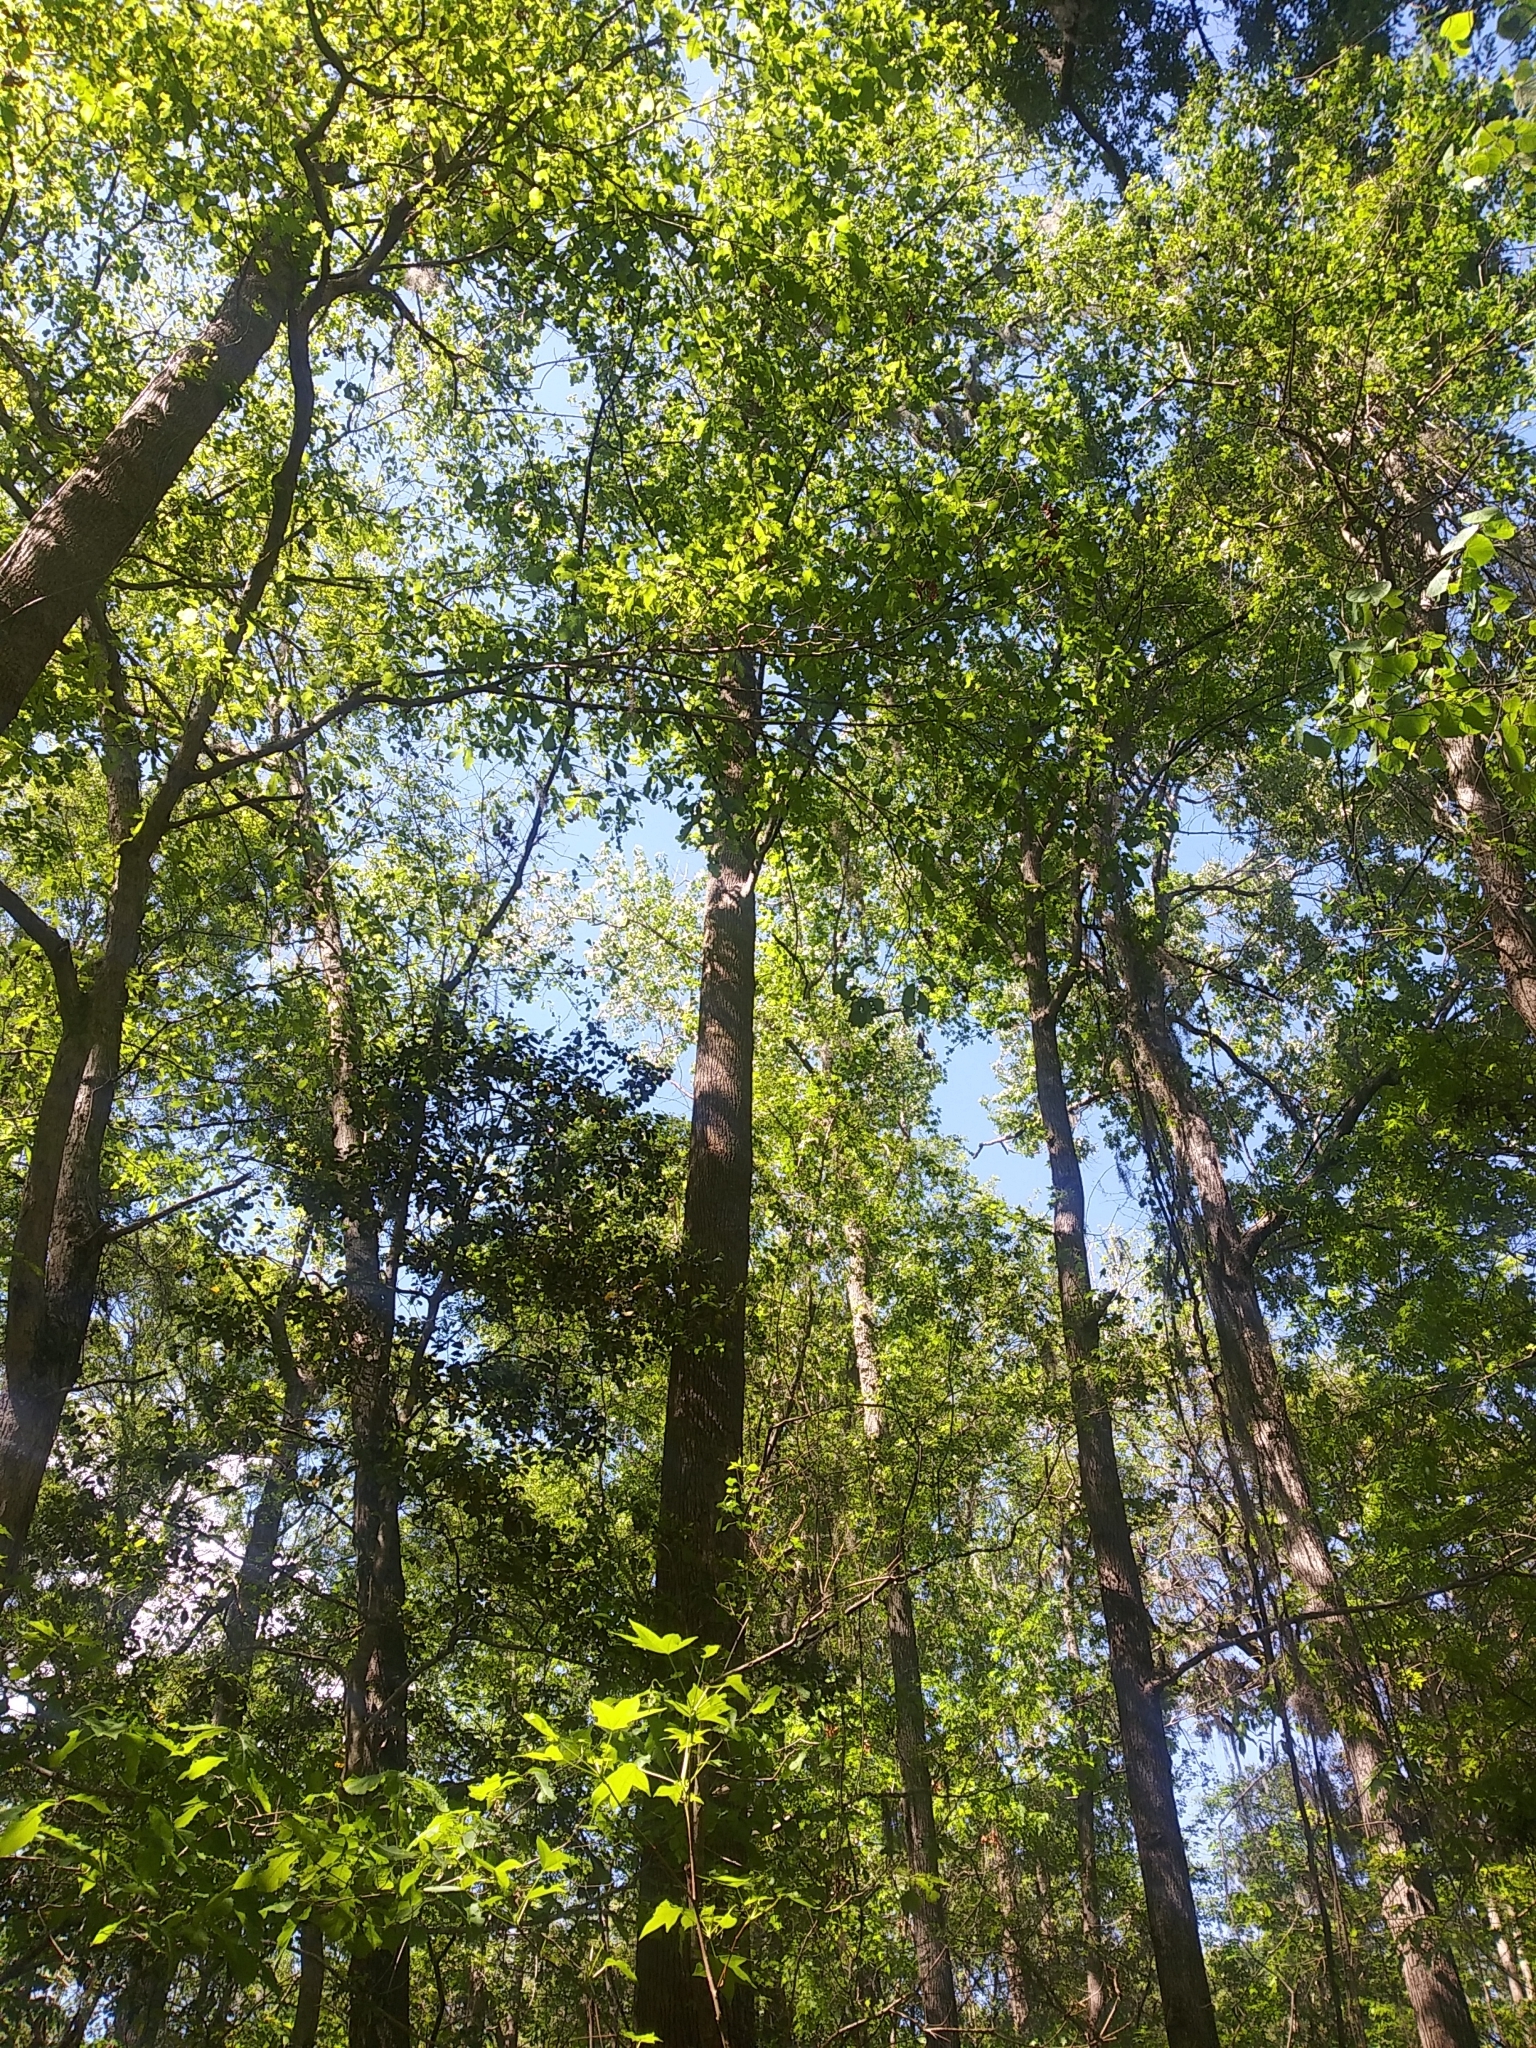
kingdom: Plantae
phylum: Tracheophyta
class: Magnoliopsida
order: Magnoliales
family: Magnoliaceae
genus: Liriodendron
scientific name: Liriodendron tulipifera
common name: Tulip tree
